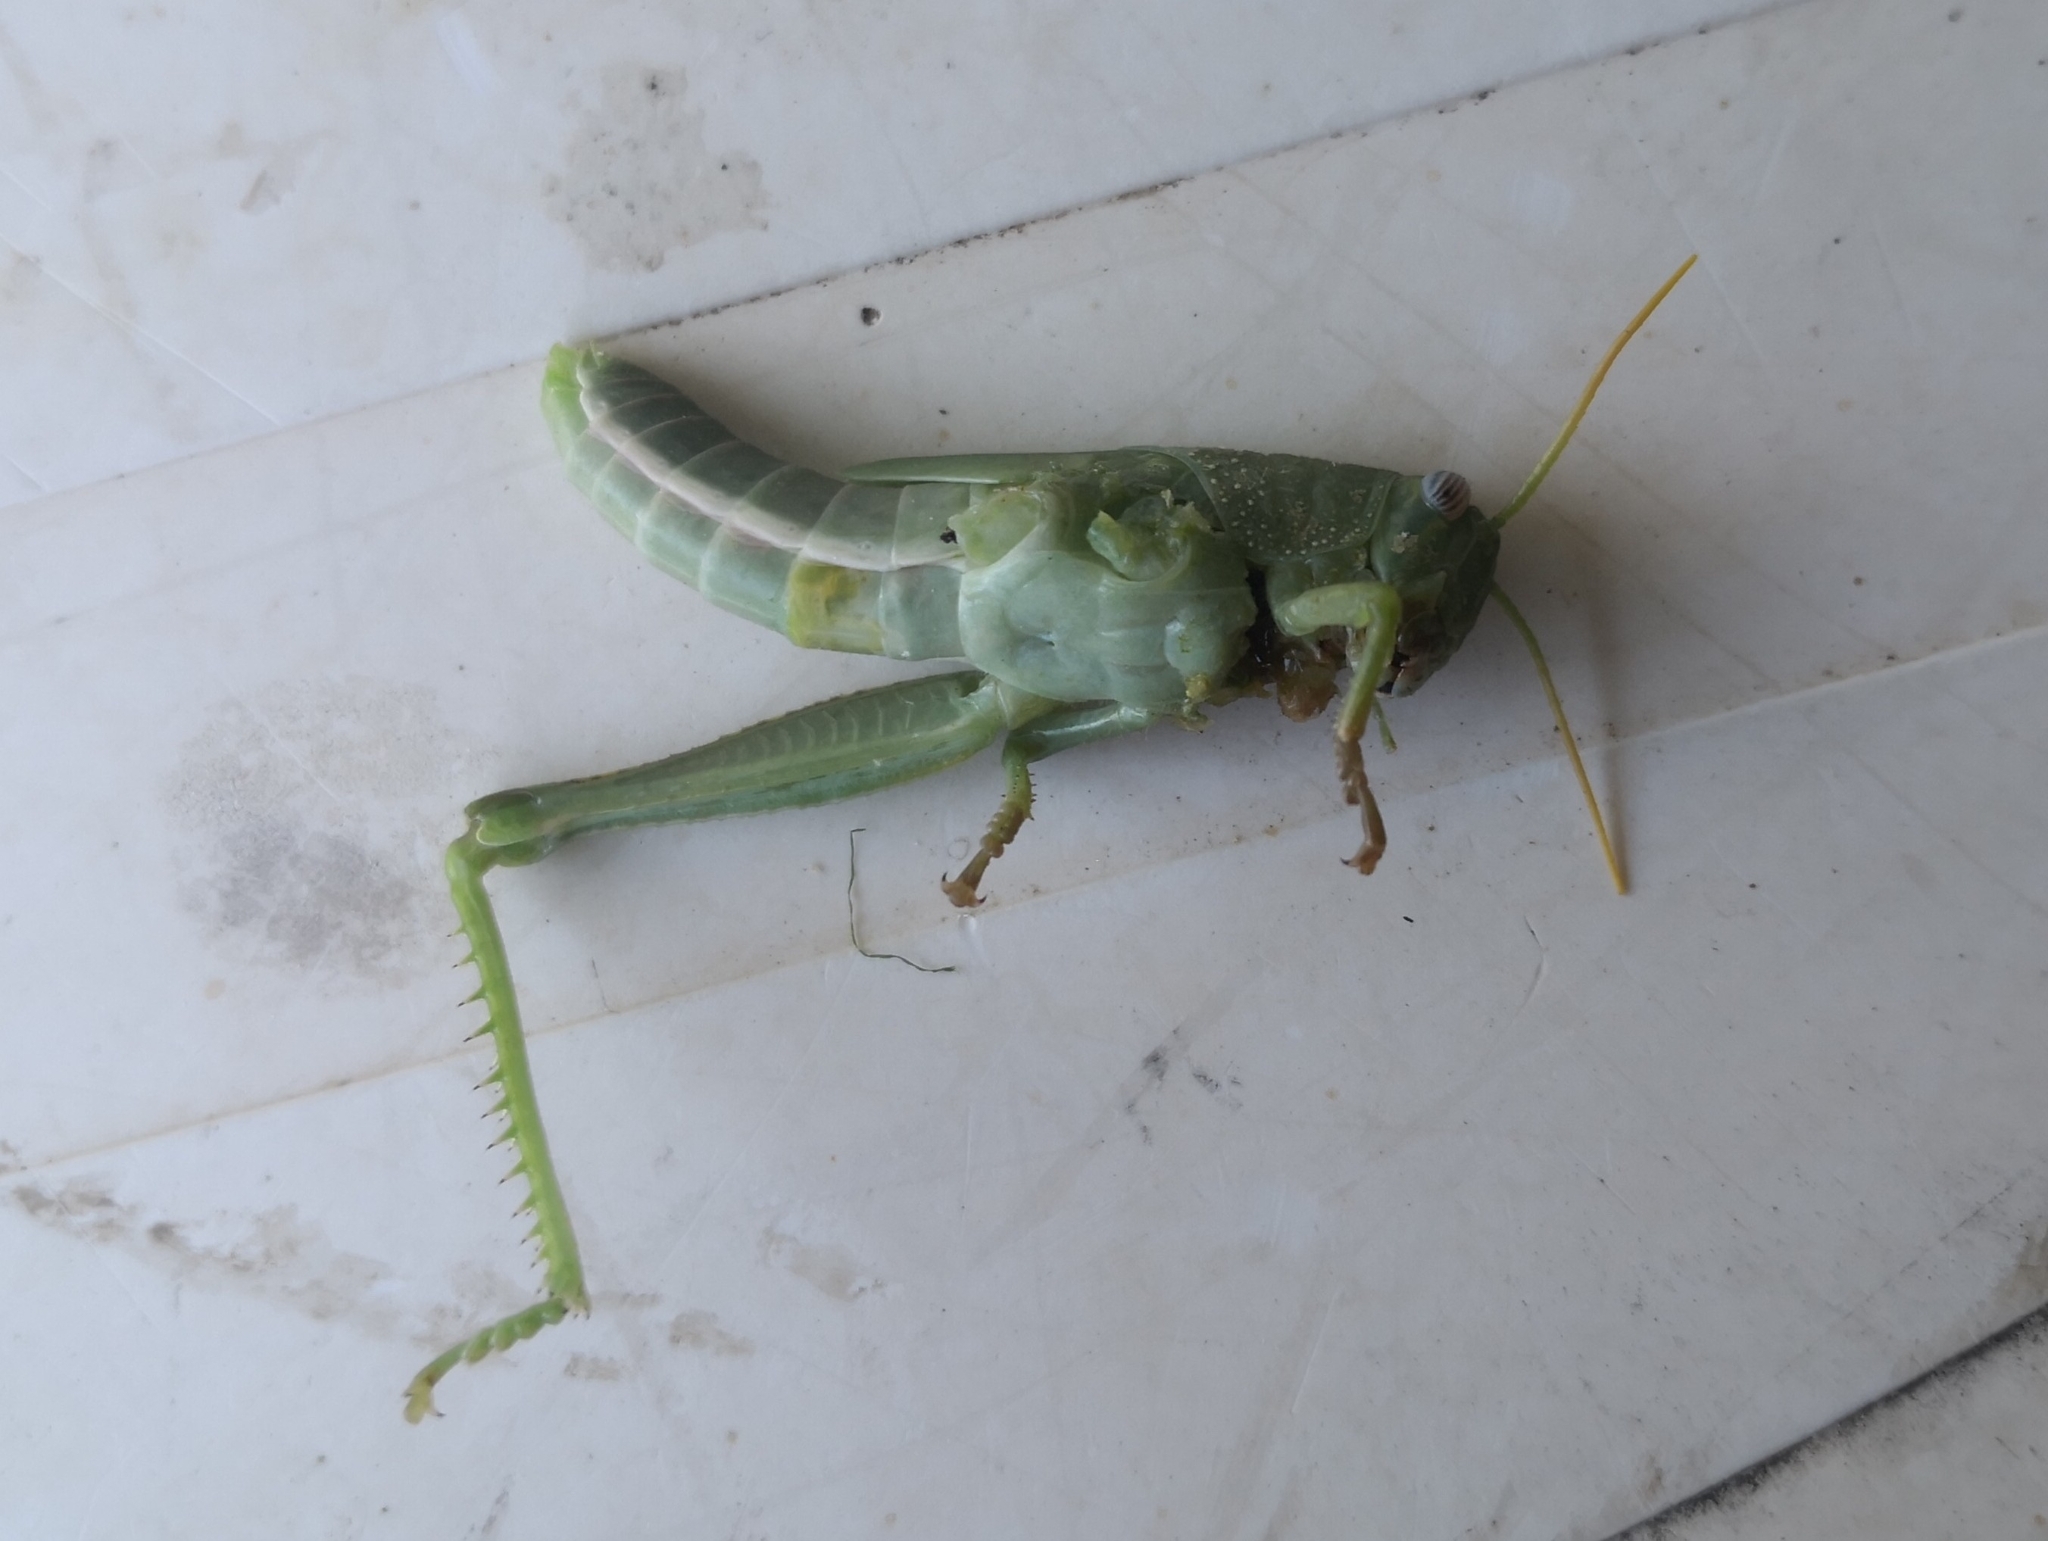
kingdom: Animalia
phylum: Arthropoda
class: Insecta
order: Orthoptera
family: Acrididae
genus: Anacridium
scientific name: Anacridium aegyptium
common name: Egyptian grasshopper
